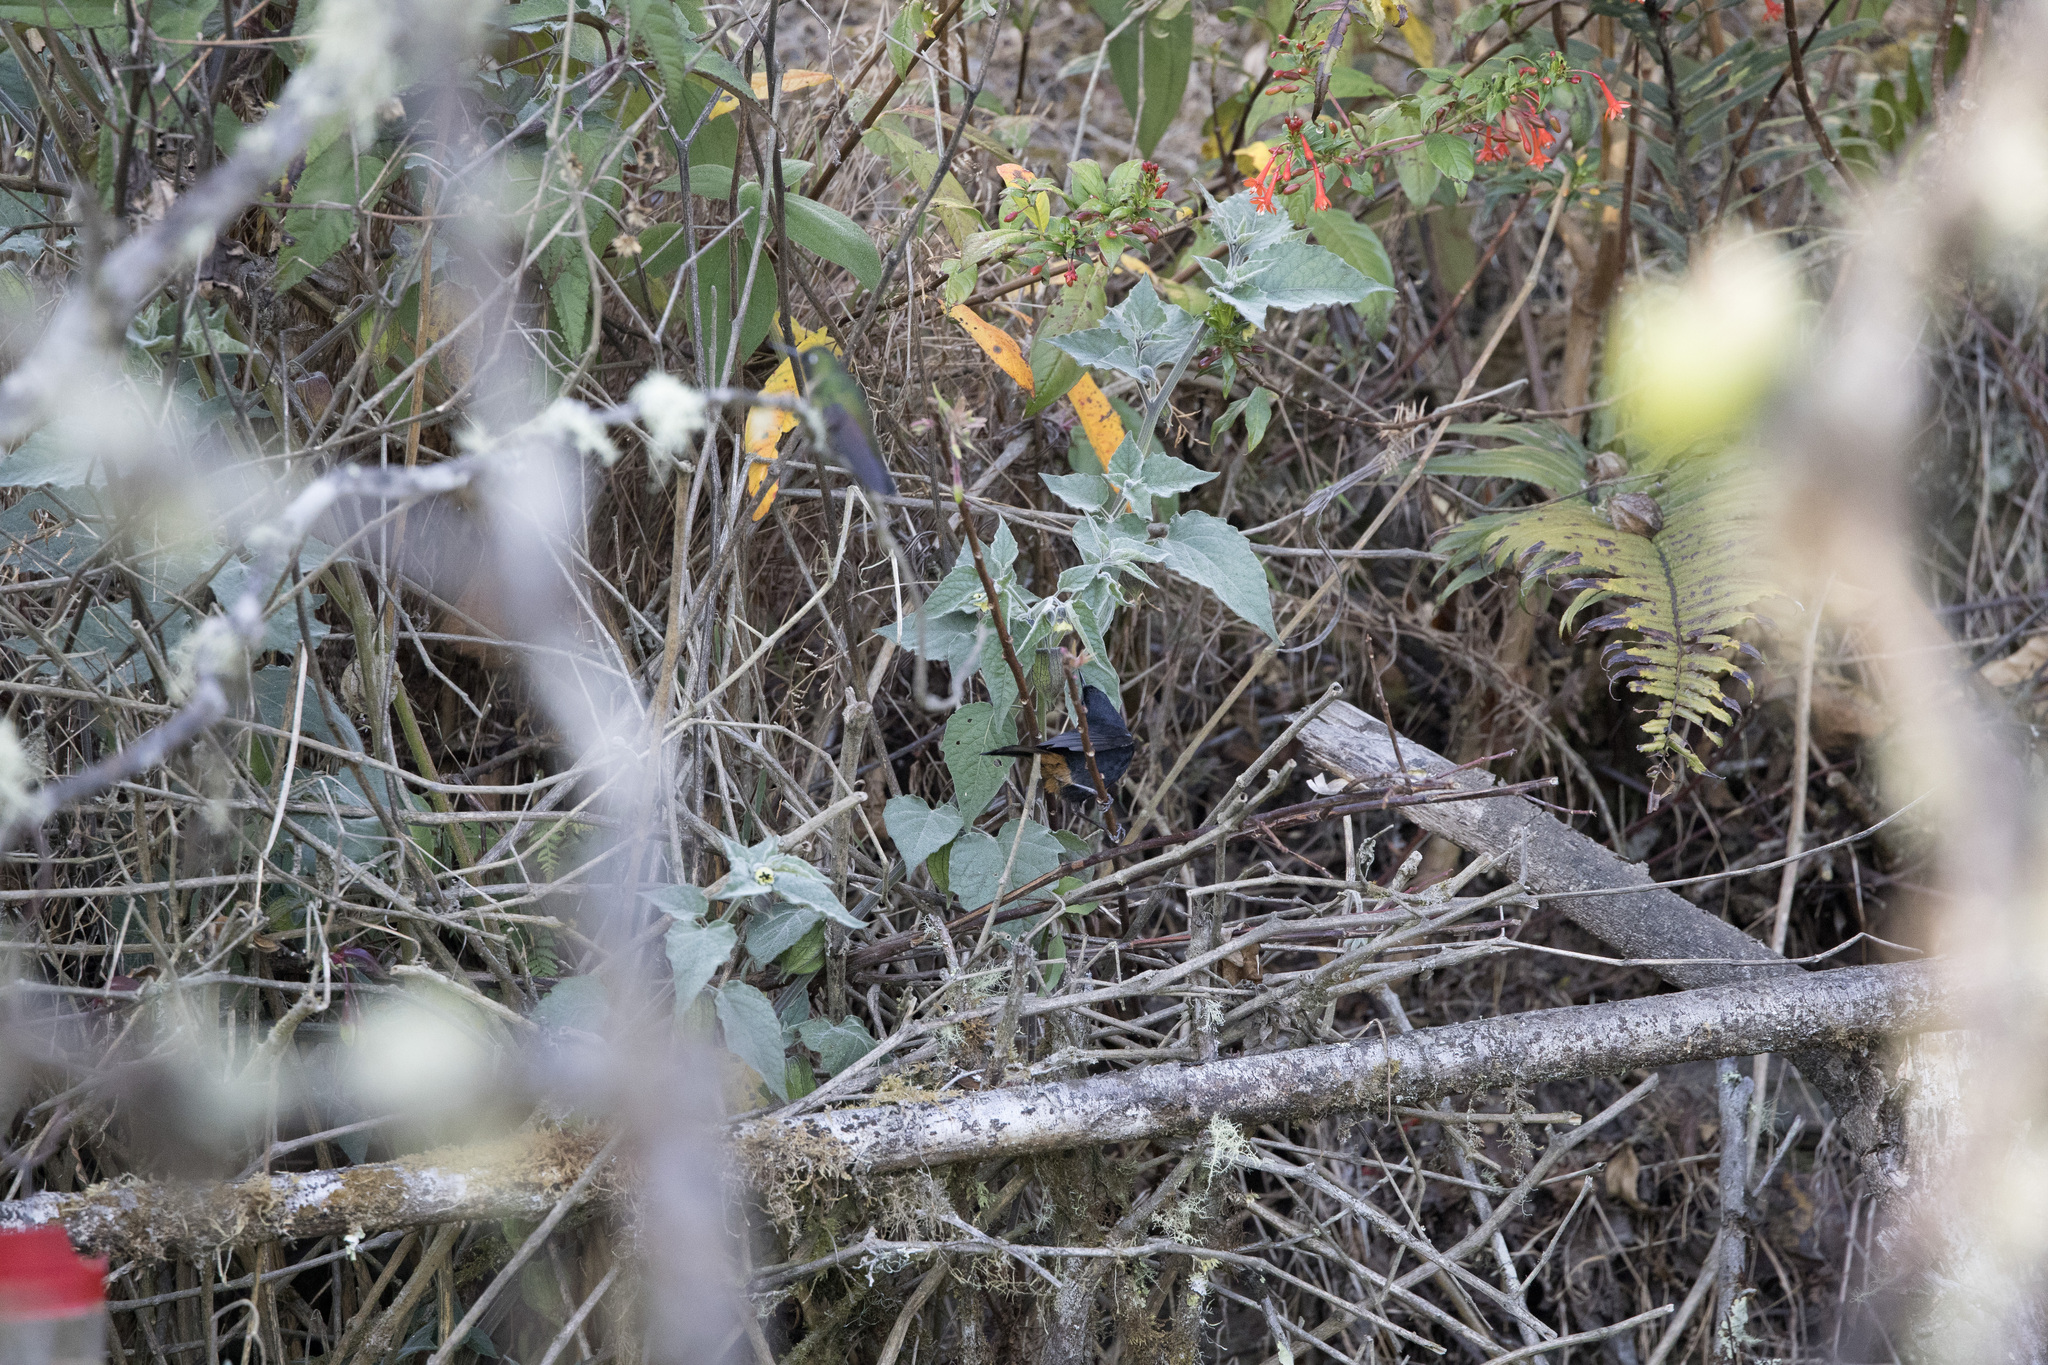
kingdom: Animalia
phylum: Chordata
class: Aves
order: Passeriformes
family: Thraupidae
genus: Diglossa
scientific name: Diglossa mystacalis
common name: Moustached flowerpiercer
